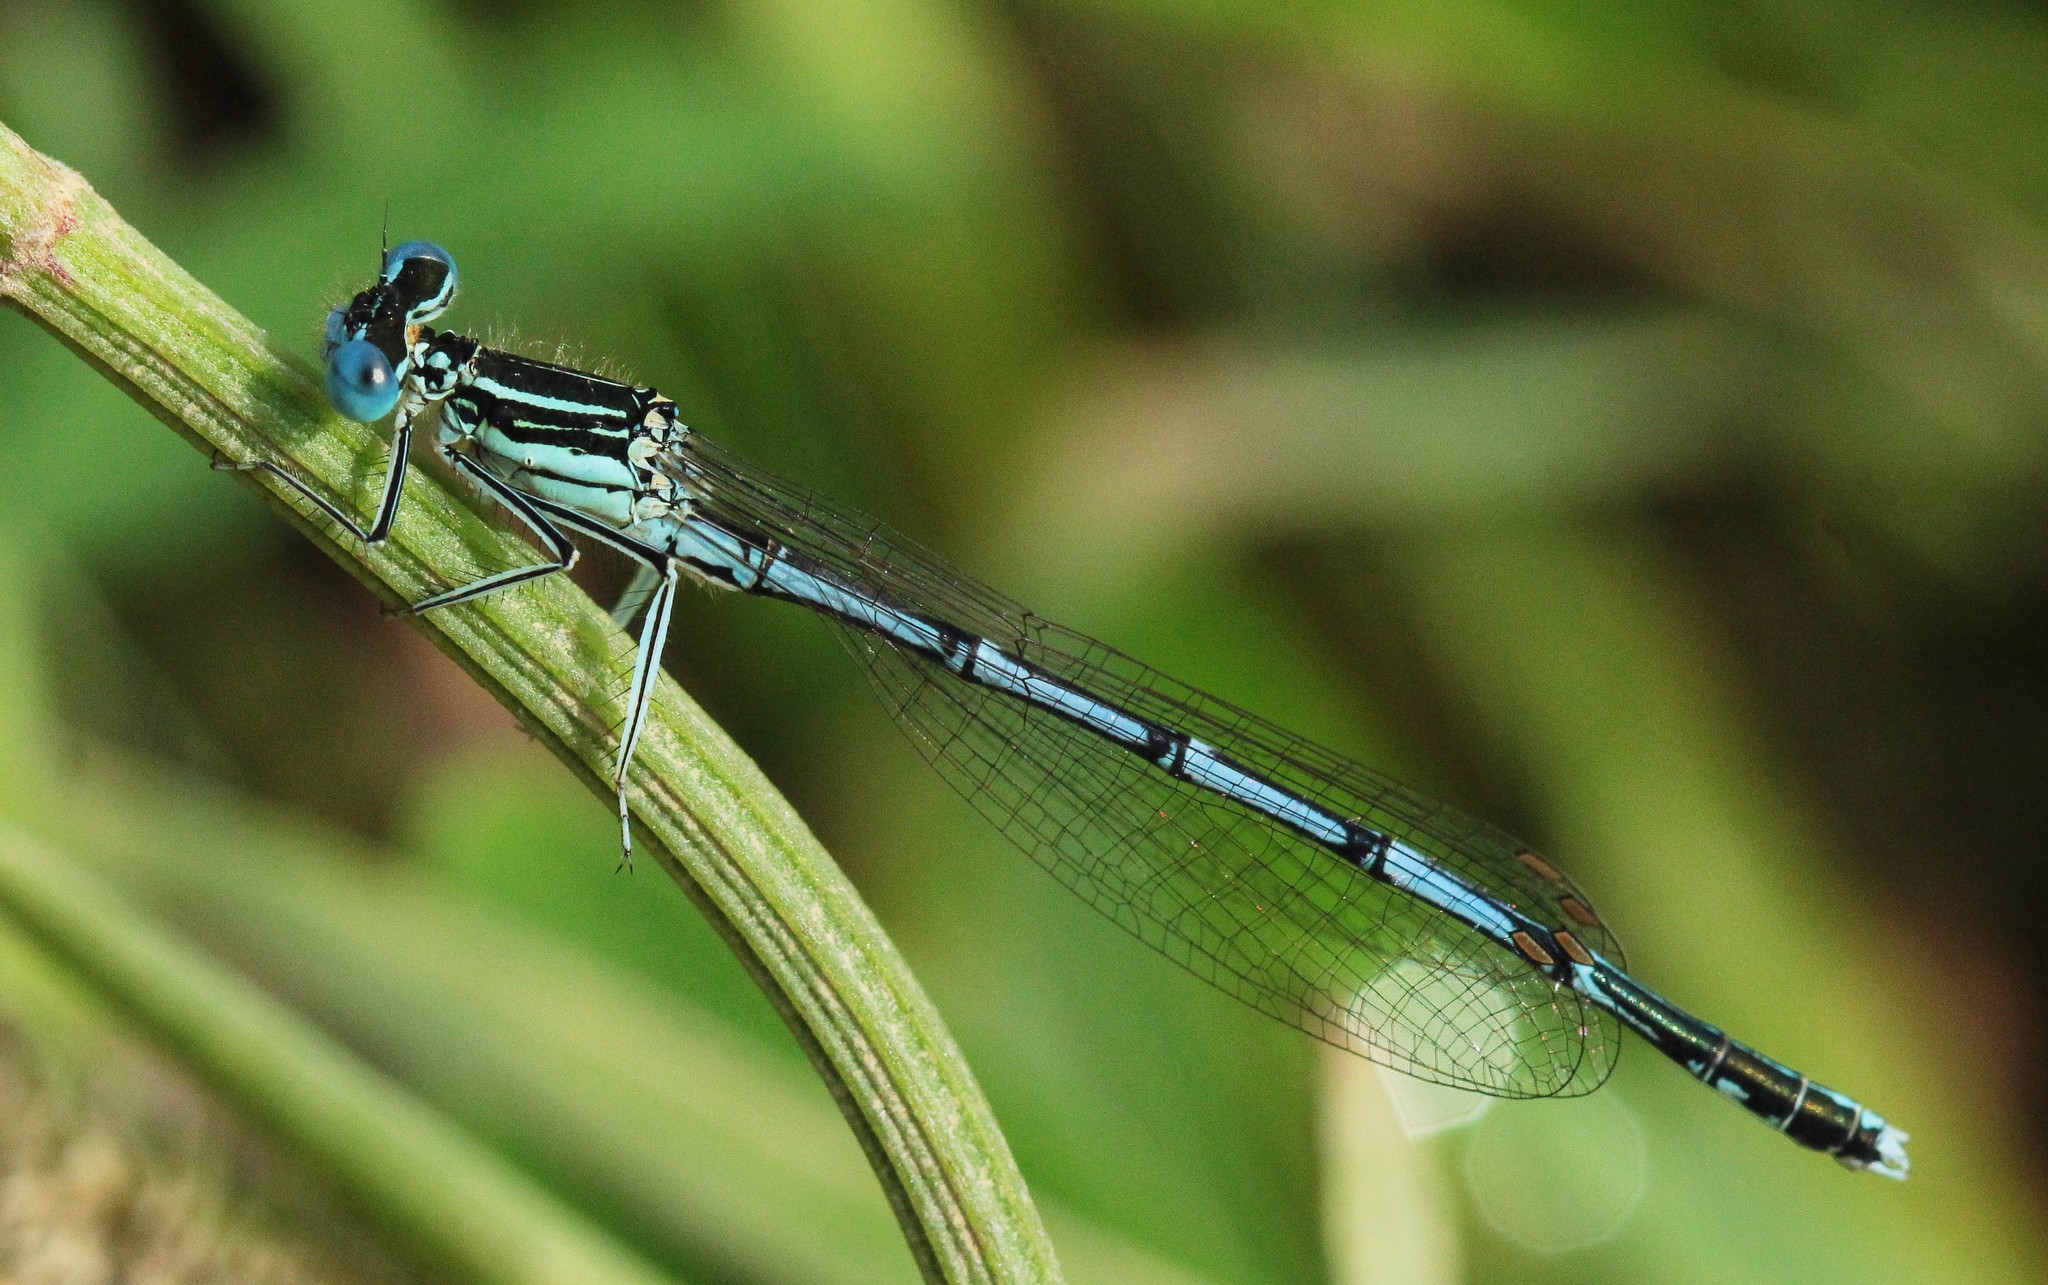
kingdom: Animalia
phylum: Arthropoda
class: Insecta
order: Odonata
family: Platycnemididae
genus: Platycnemis
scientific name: Platycnemis pennipes
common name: White-legged damselfly
